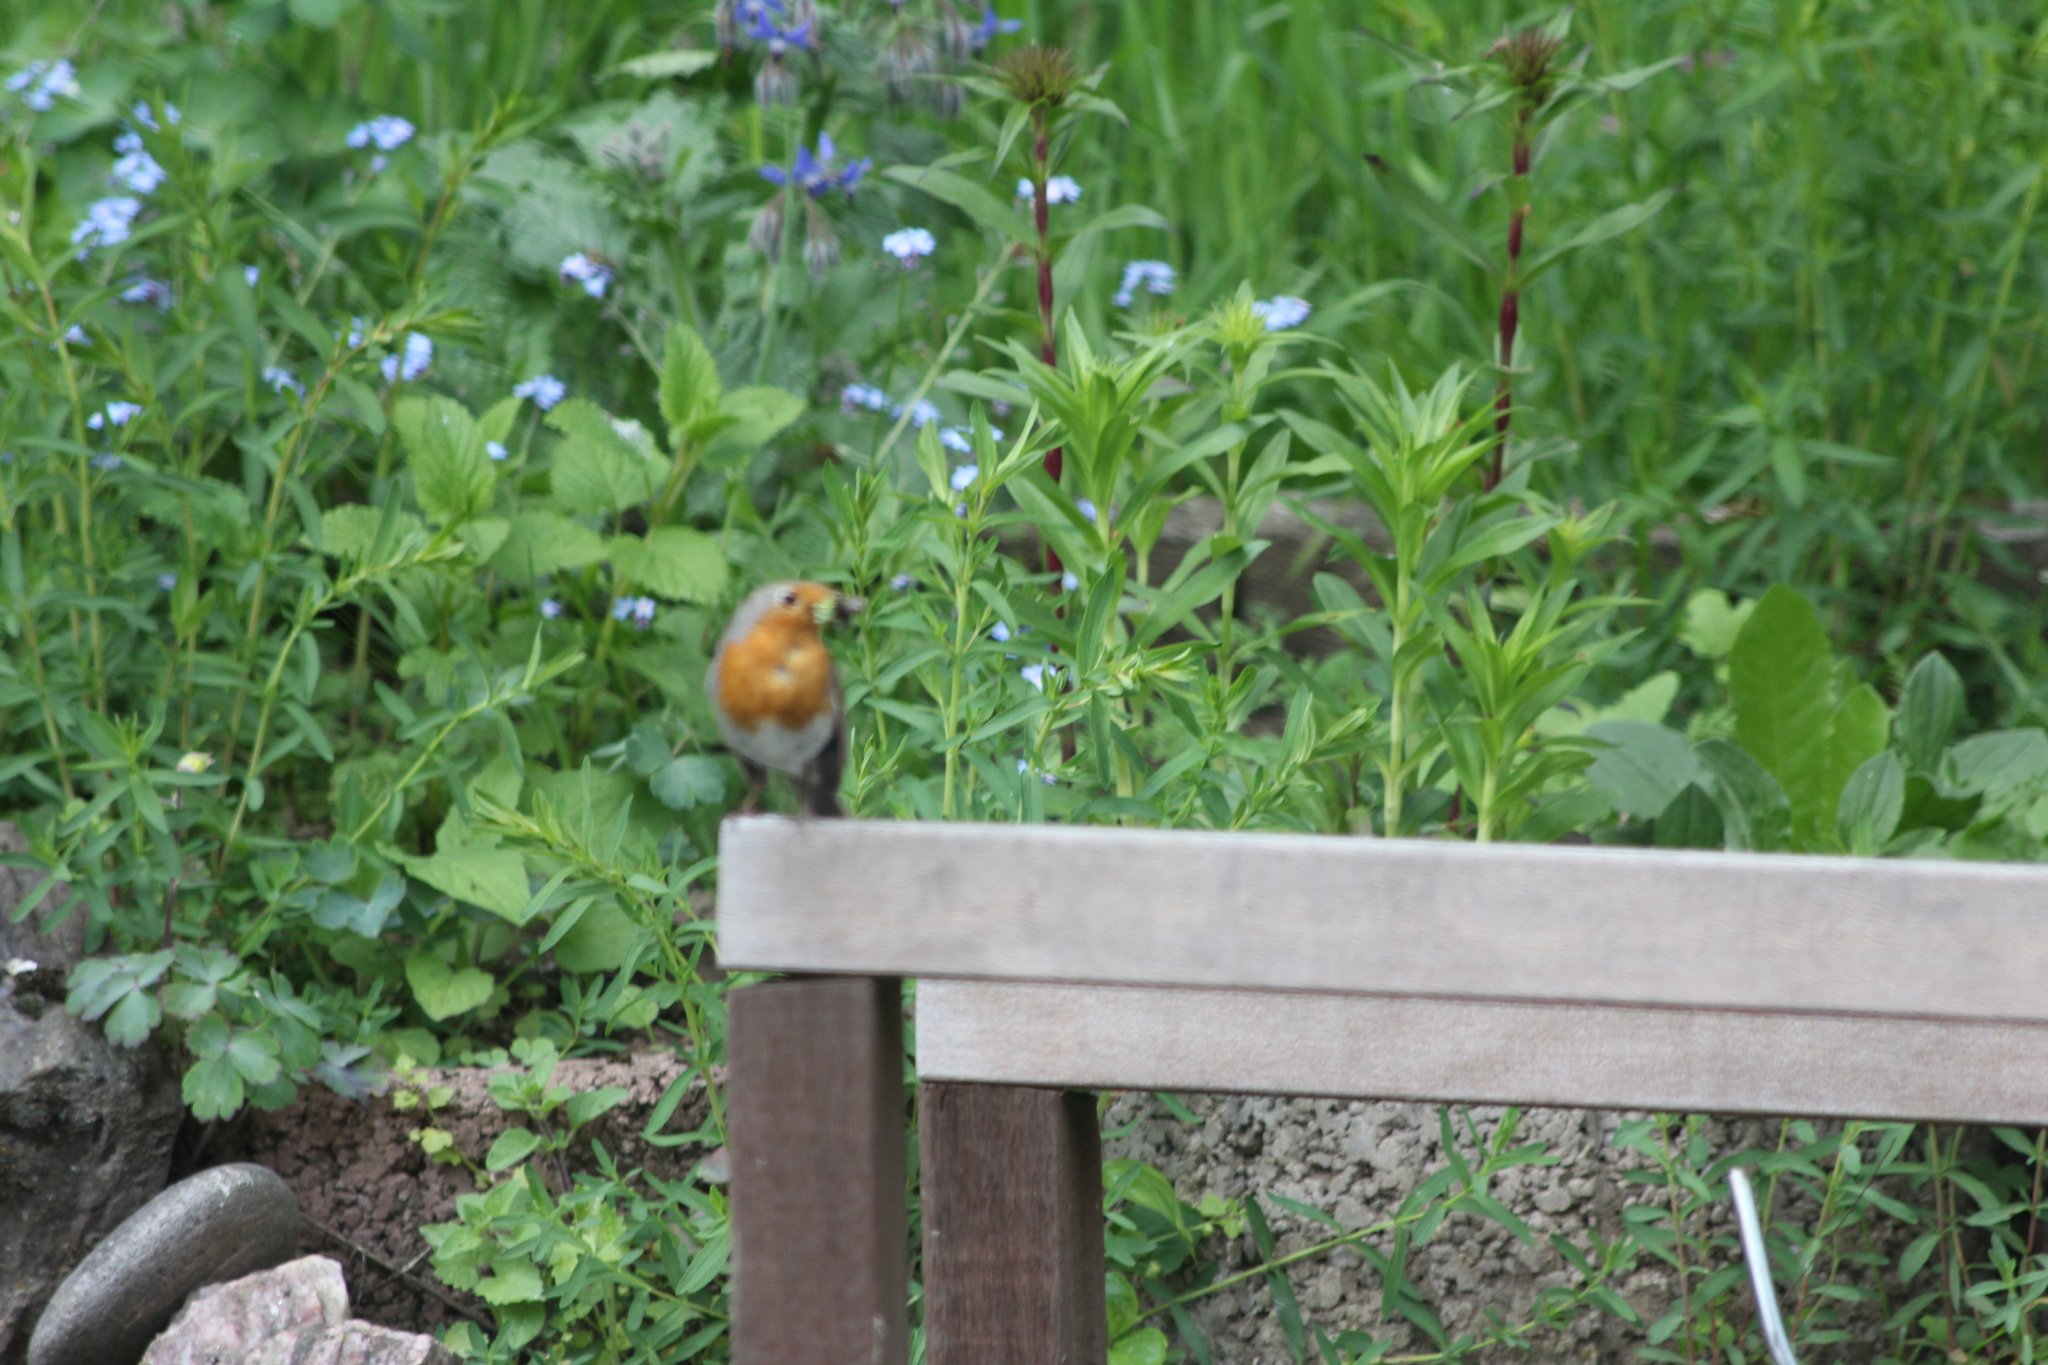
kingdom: Animalia
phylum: Chordata
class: Aves
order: Passeriformes
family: Muscicapidae
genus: Erithacus
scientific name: Erithacus rubecula
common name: European robin
